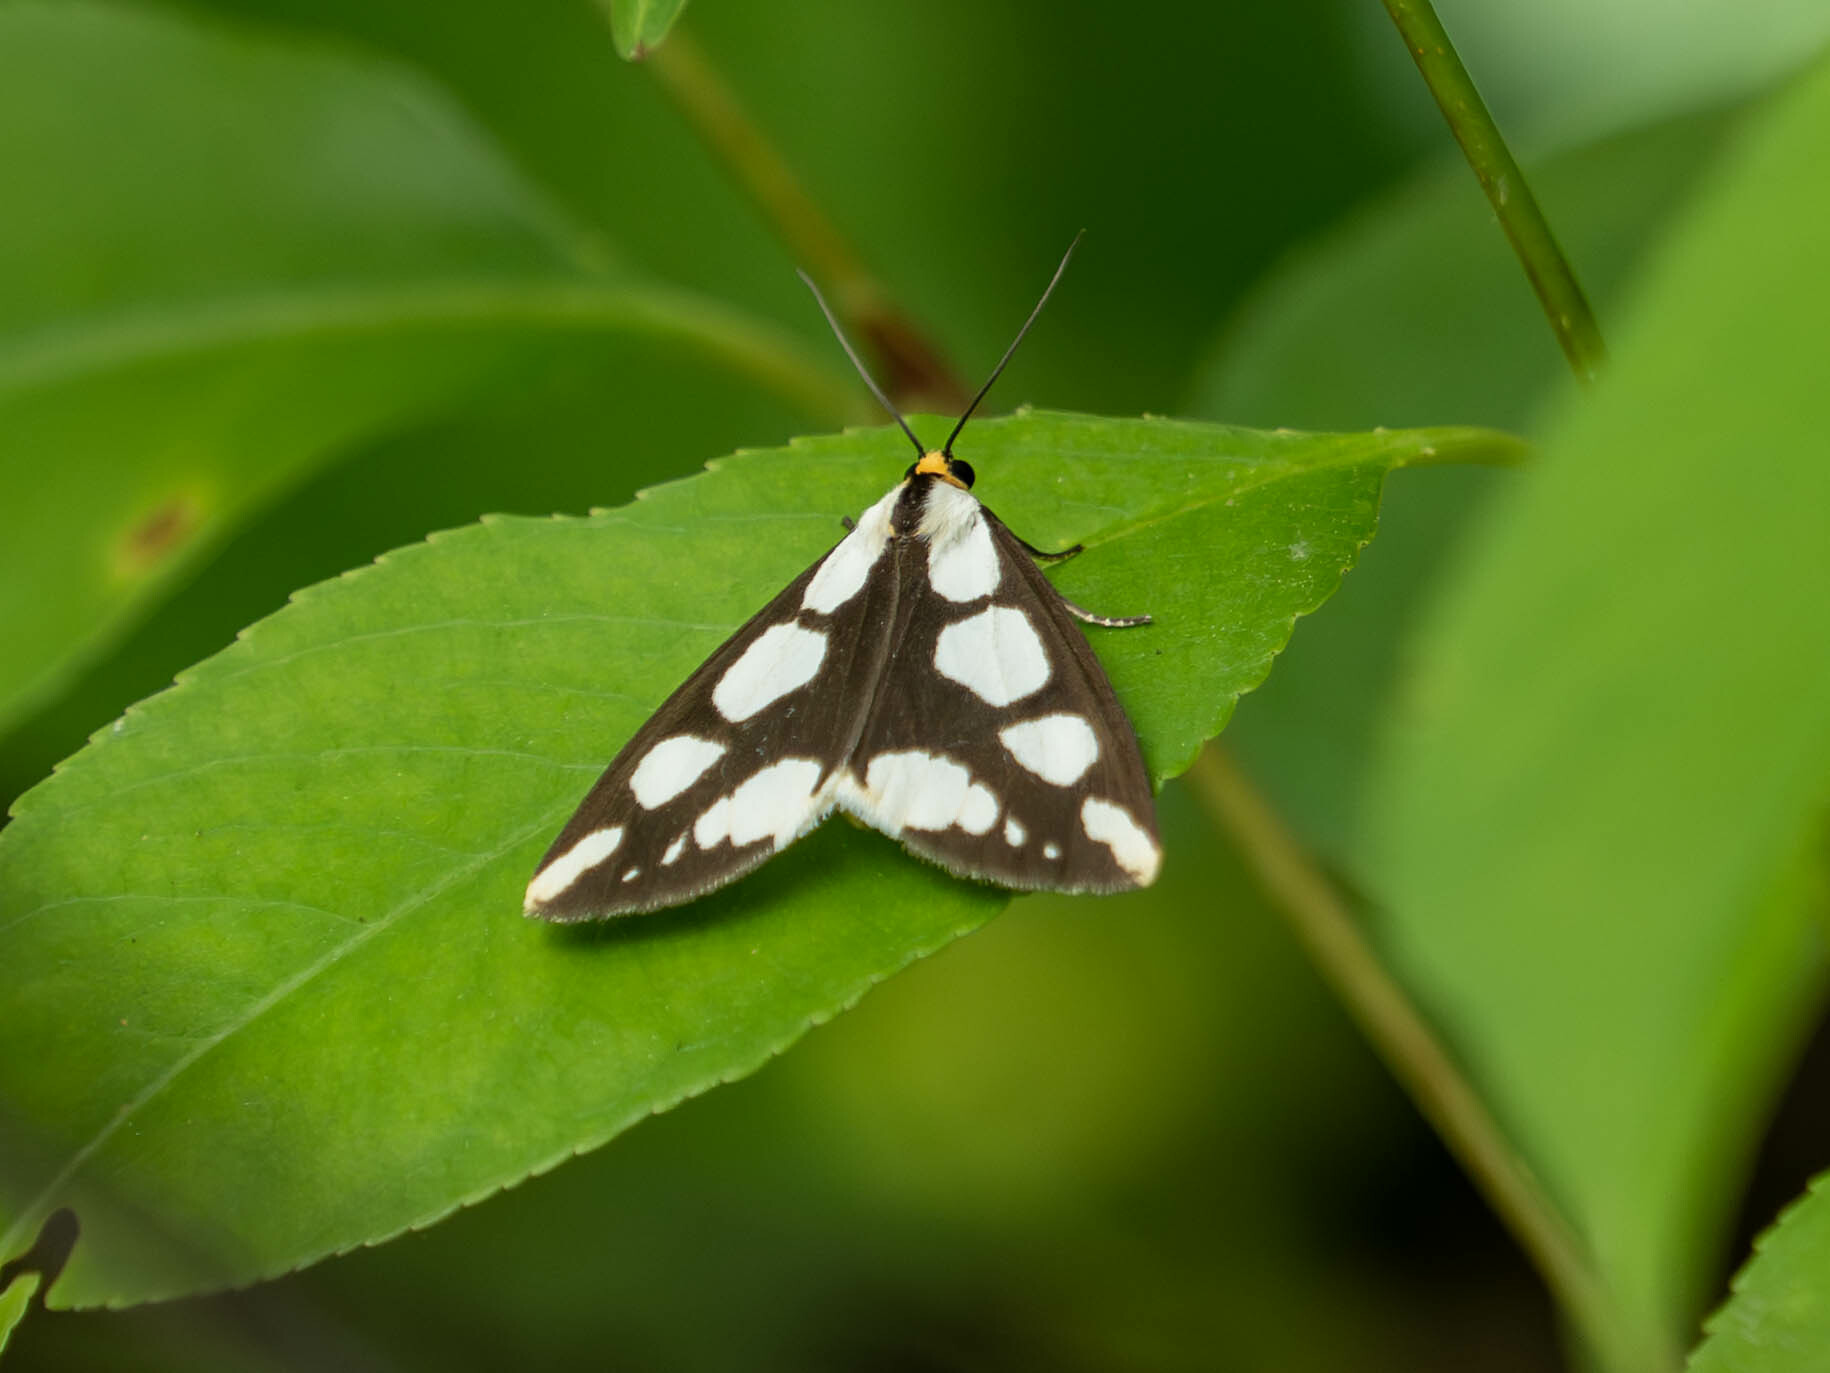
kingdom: Animalia
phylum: Arthropoda
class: Insecta
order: Lepidoptera
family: Erebidae
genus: Haploa
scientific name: Haploa lecontei
